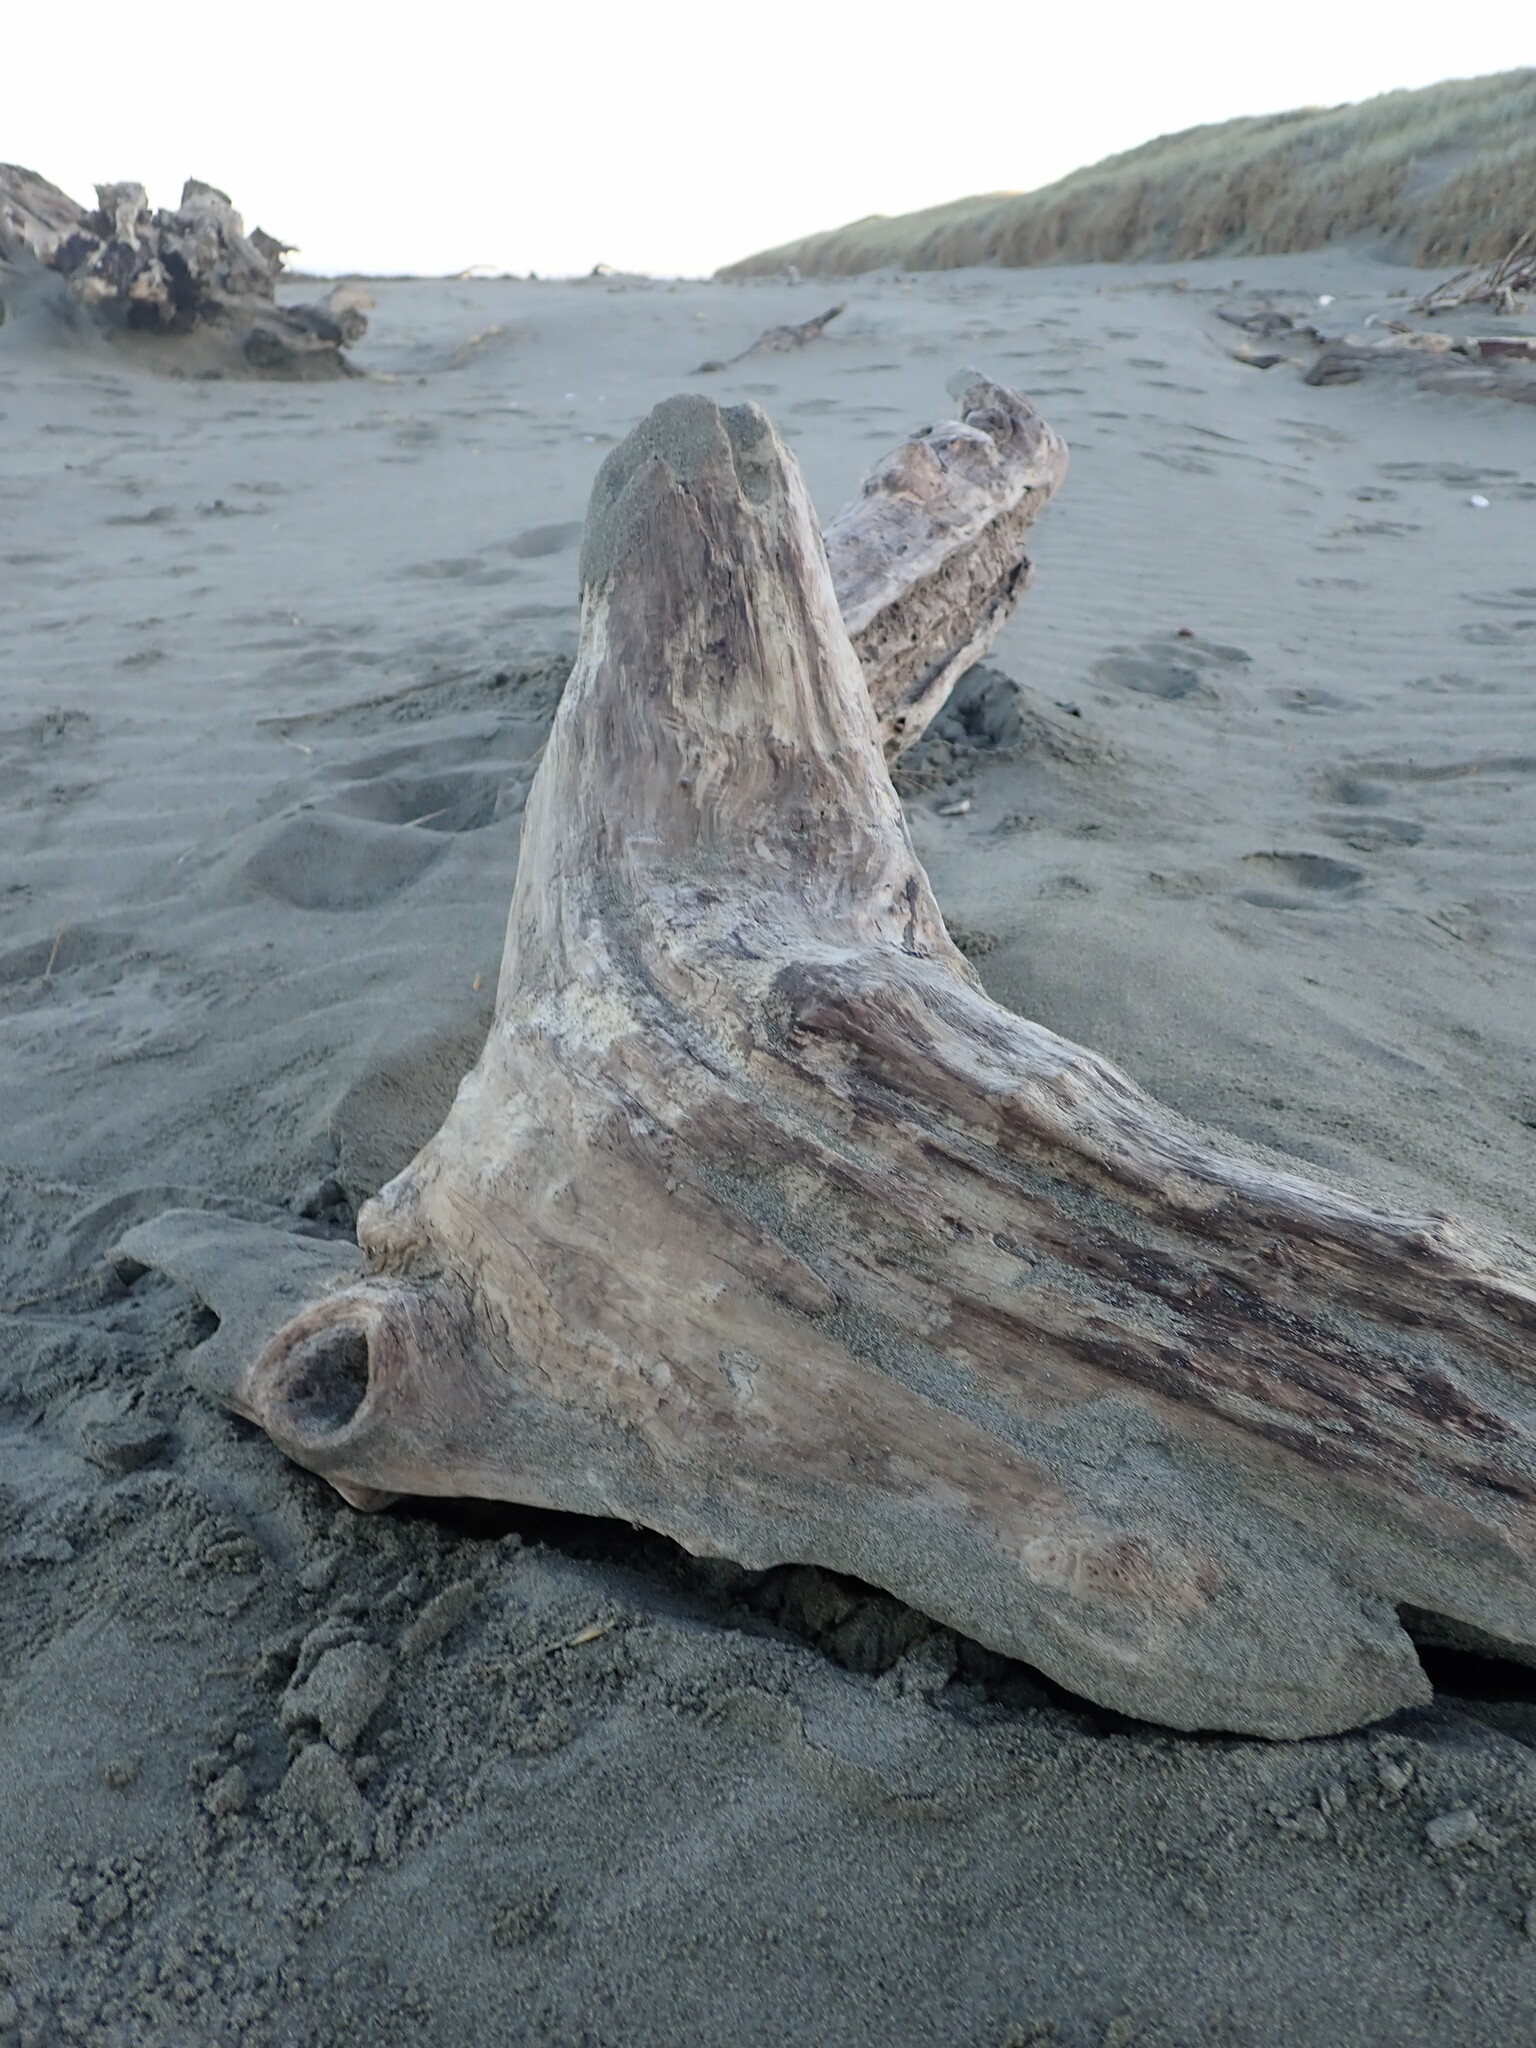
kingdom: Animalia
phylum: Arthropoda
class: Insecta
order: Coleoptera
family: Carabidae
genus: Harpalus
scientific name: Harpalus affinis
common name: Polychrome harp ground beetle
